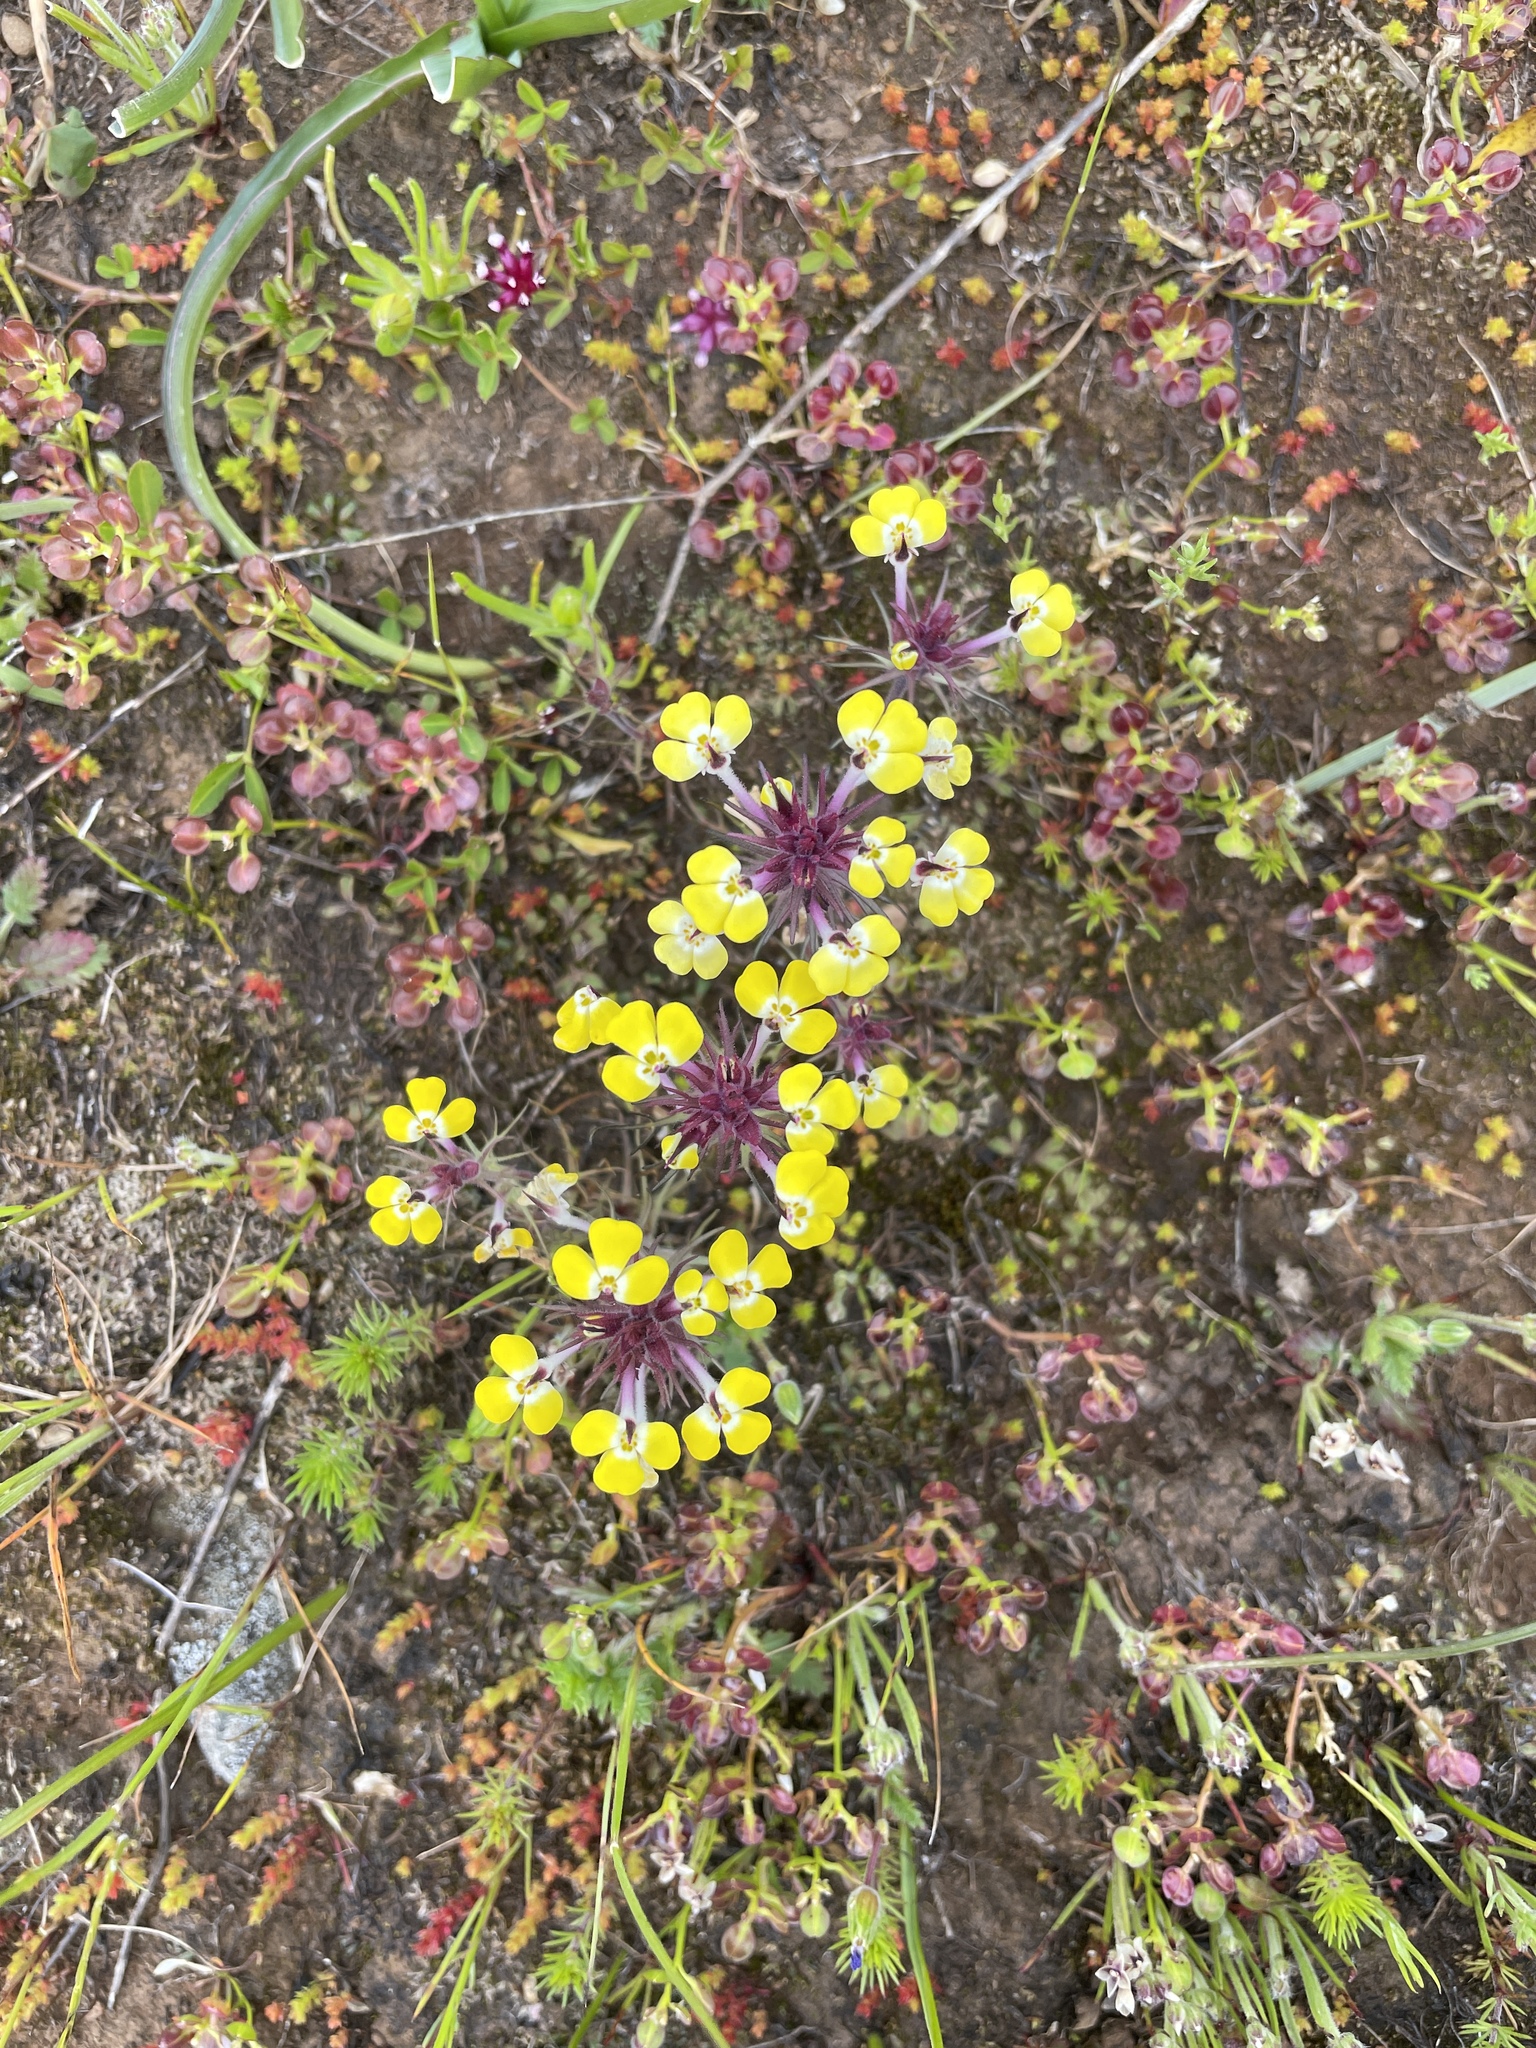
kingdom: Plantae
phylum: Tracheophyta
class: Magnoliopsida
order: Lamiales
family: Orobanchaceae
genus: Triphysaria
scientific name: Triphysaria eriantha
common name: Johnny-tuck
